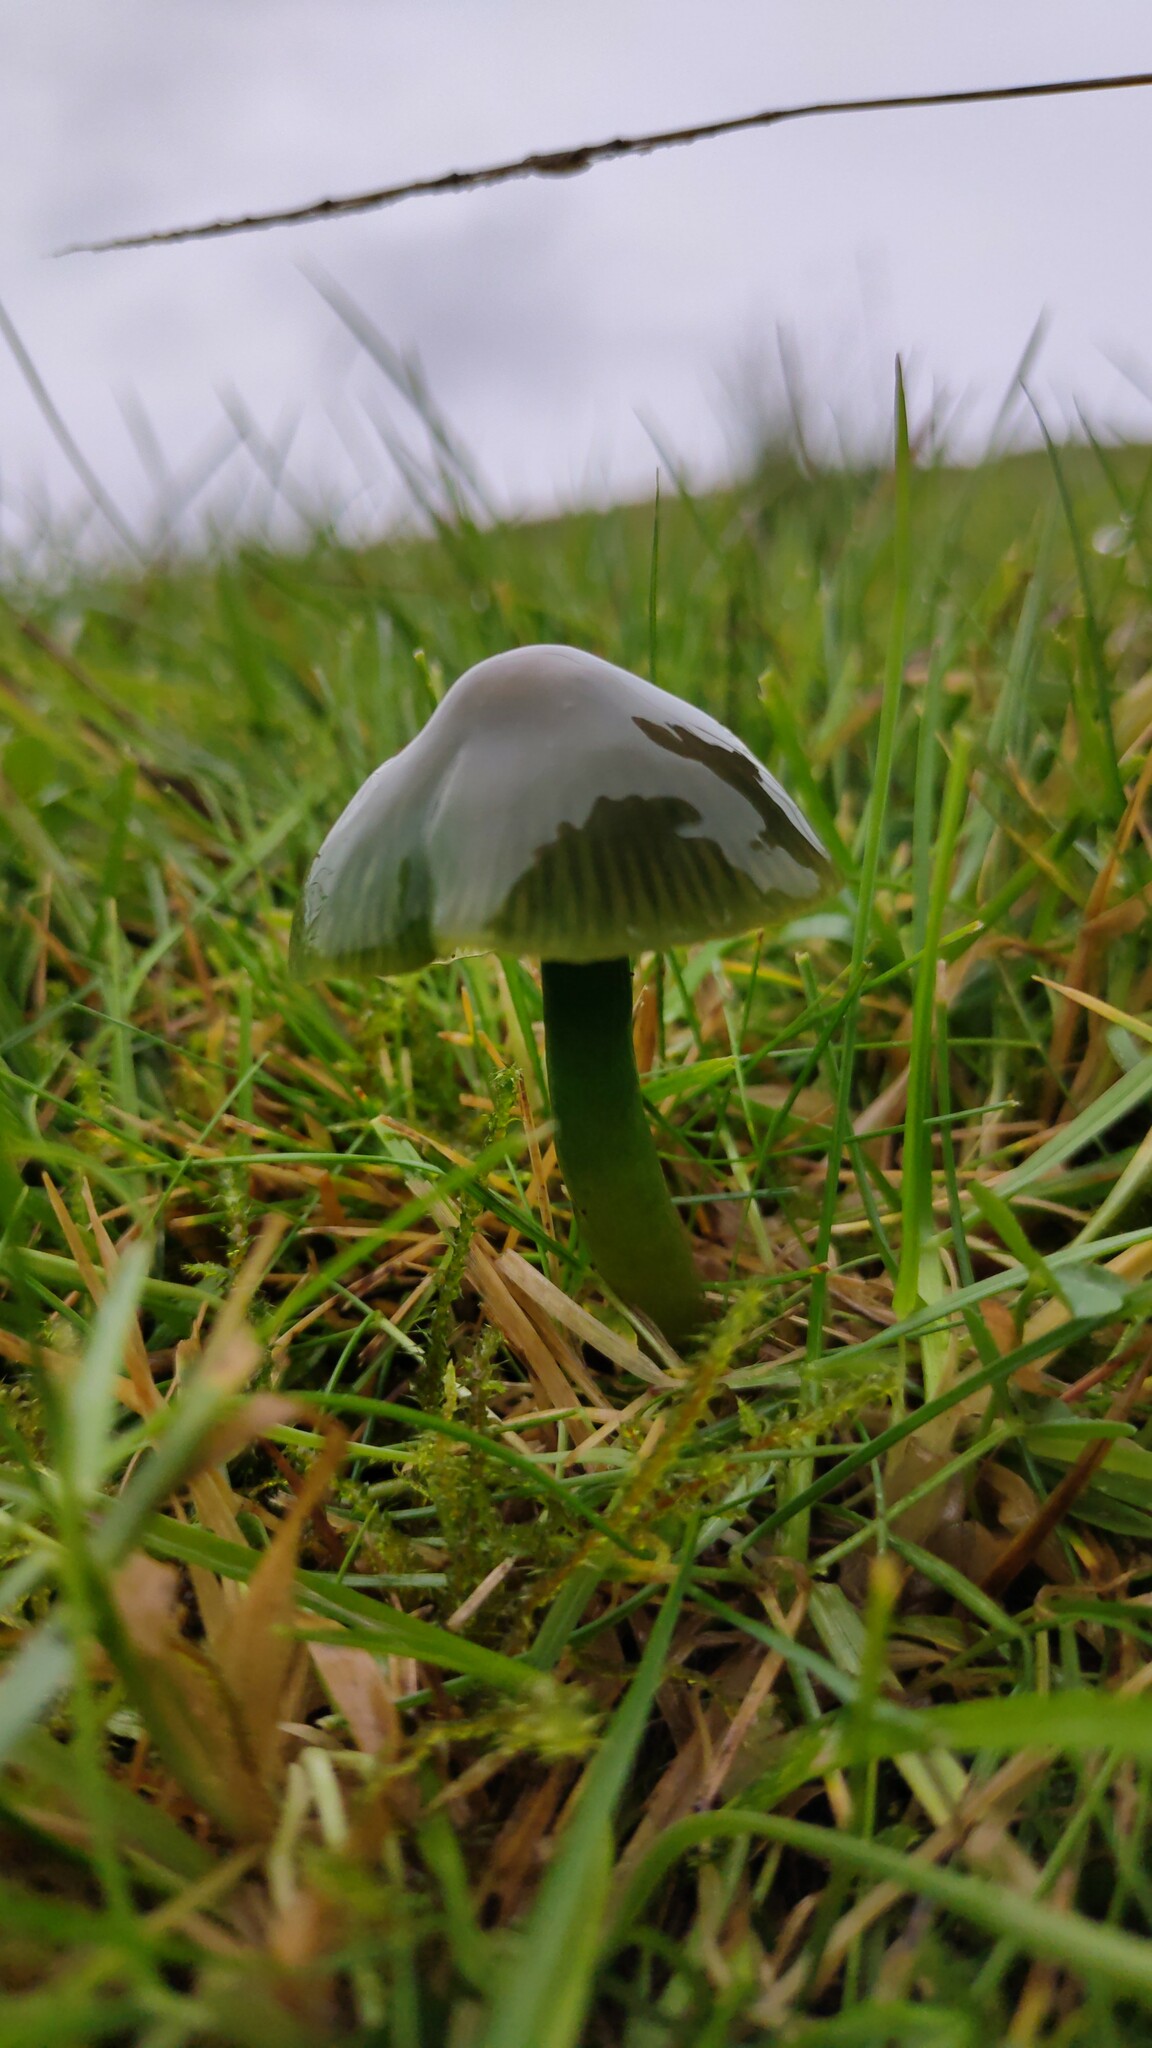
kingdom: Fungi
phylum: Basidiomycota
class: Agaricomycetes
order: Agaricales
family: Hygrophoraceae
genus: Gliophorus
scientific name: Gliophorus psittacinus
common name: Parrot wax-cap
